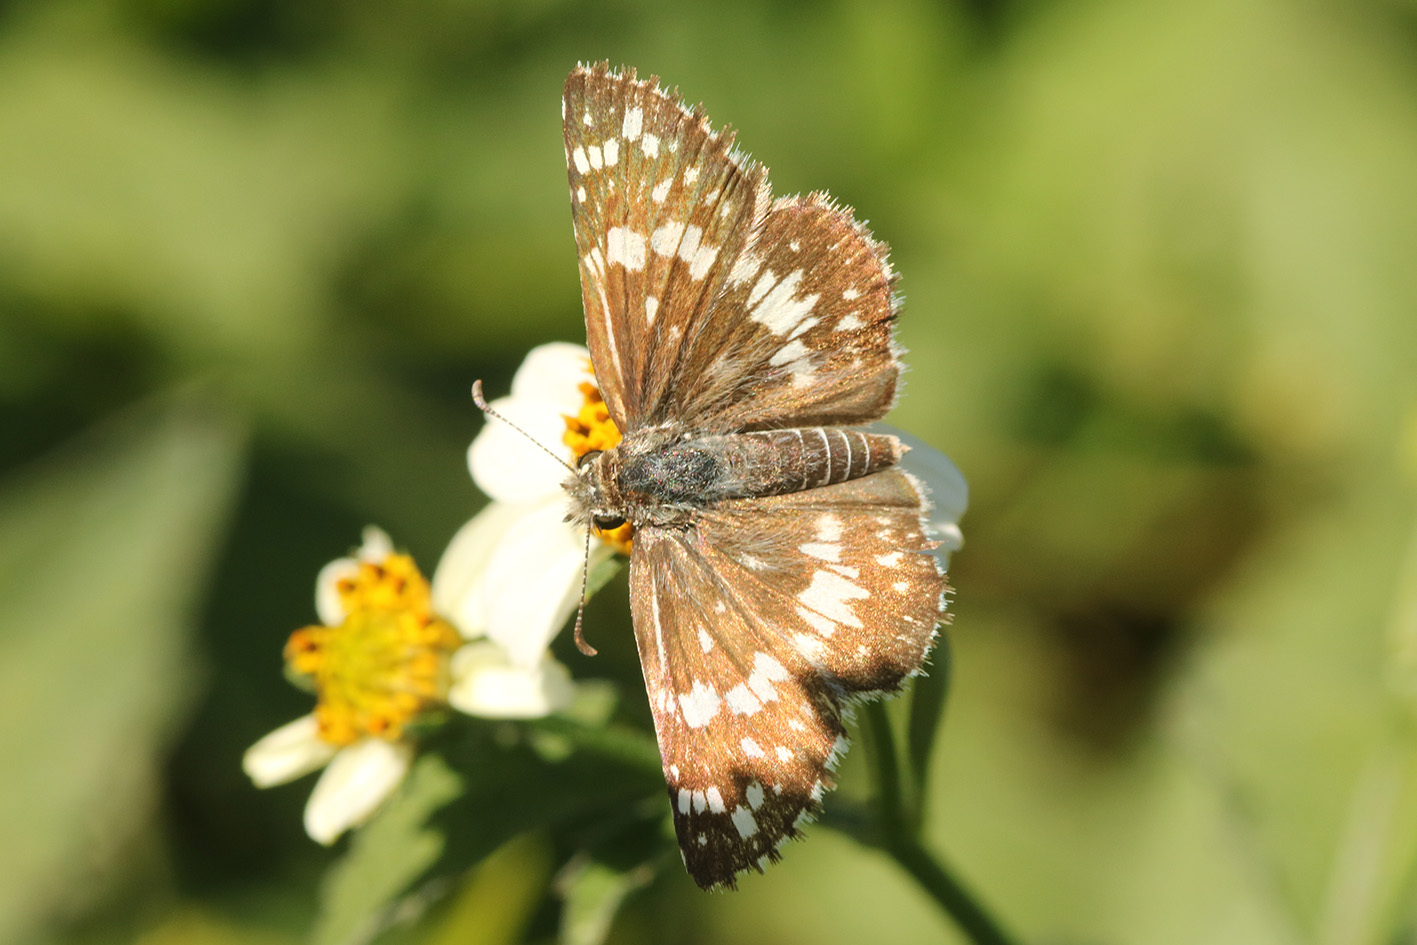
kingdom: Animalia
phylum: Arthropoda
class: Insecta
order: Lepidoptera
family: Hesperiidae
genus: Burnsius
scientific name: Burnsius orcynoides
